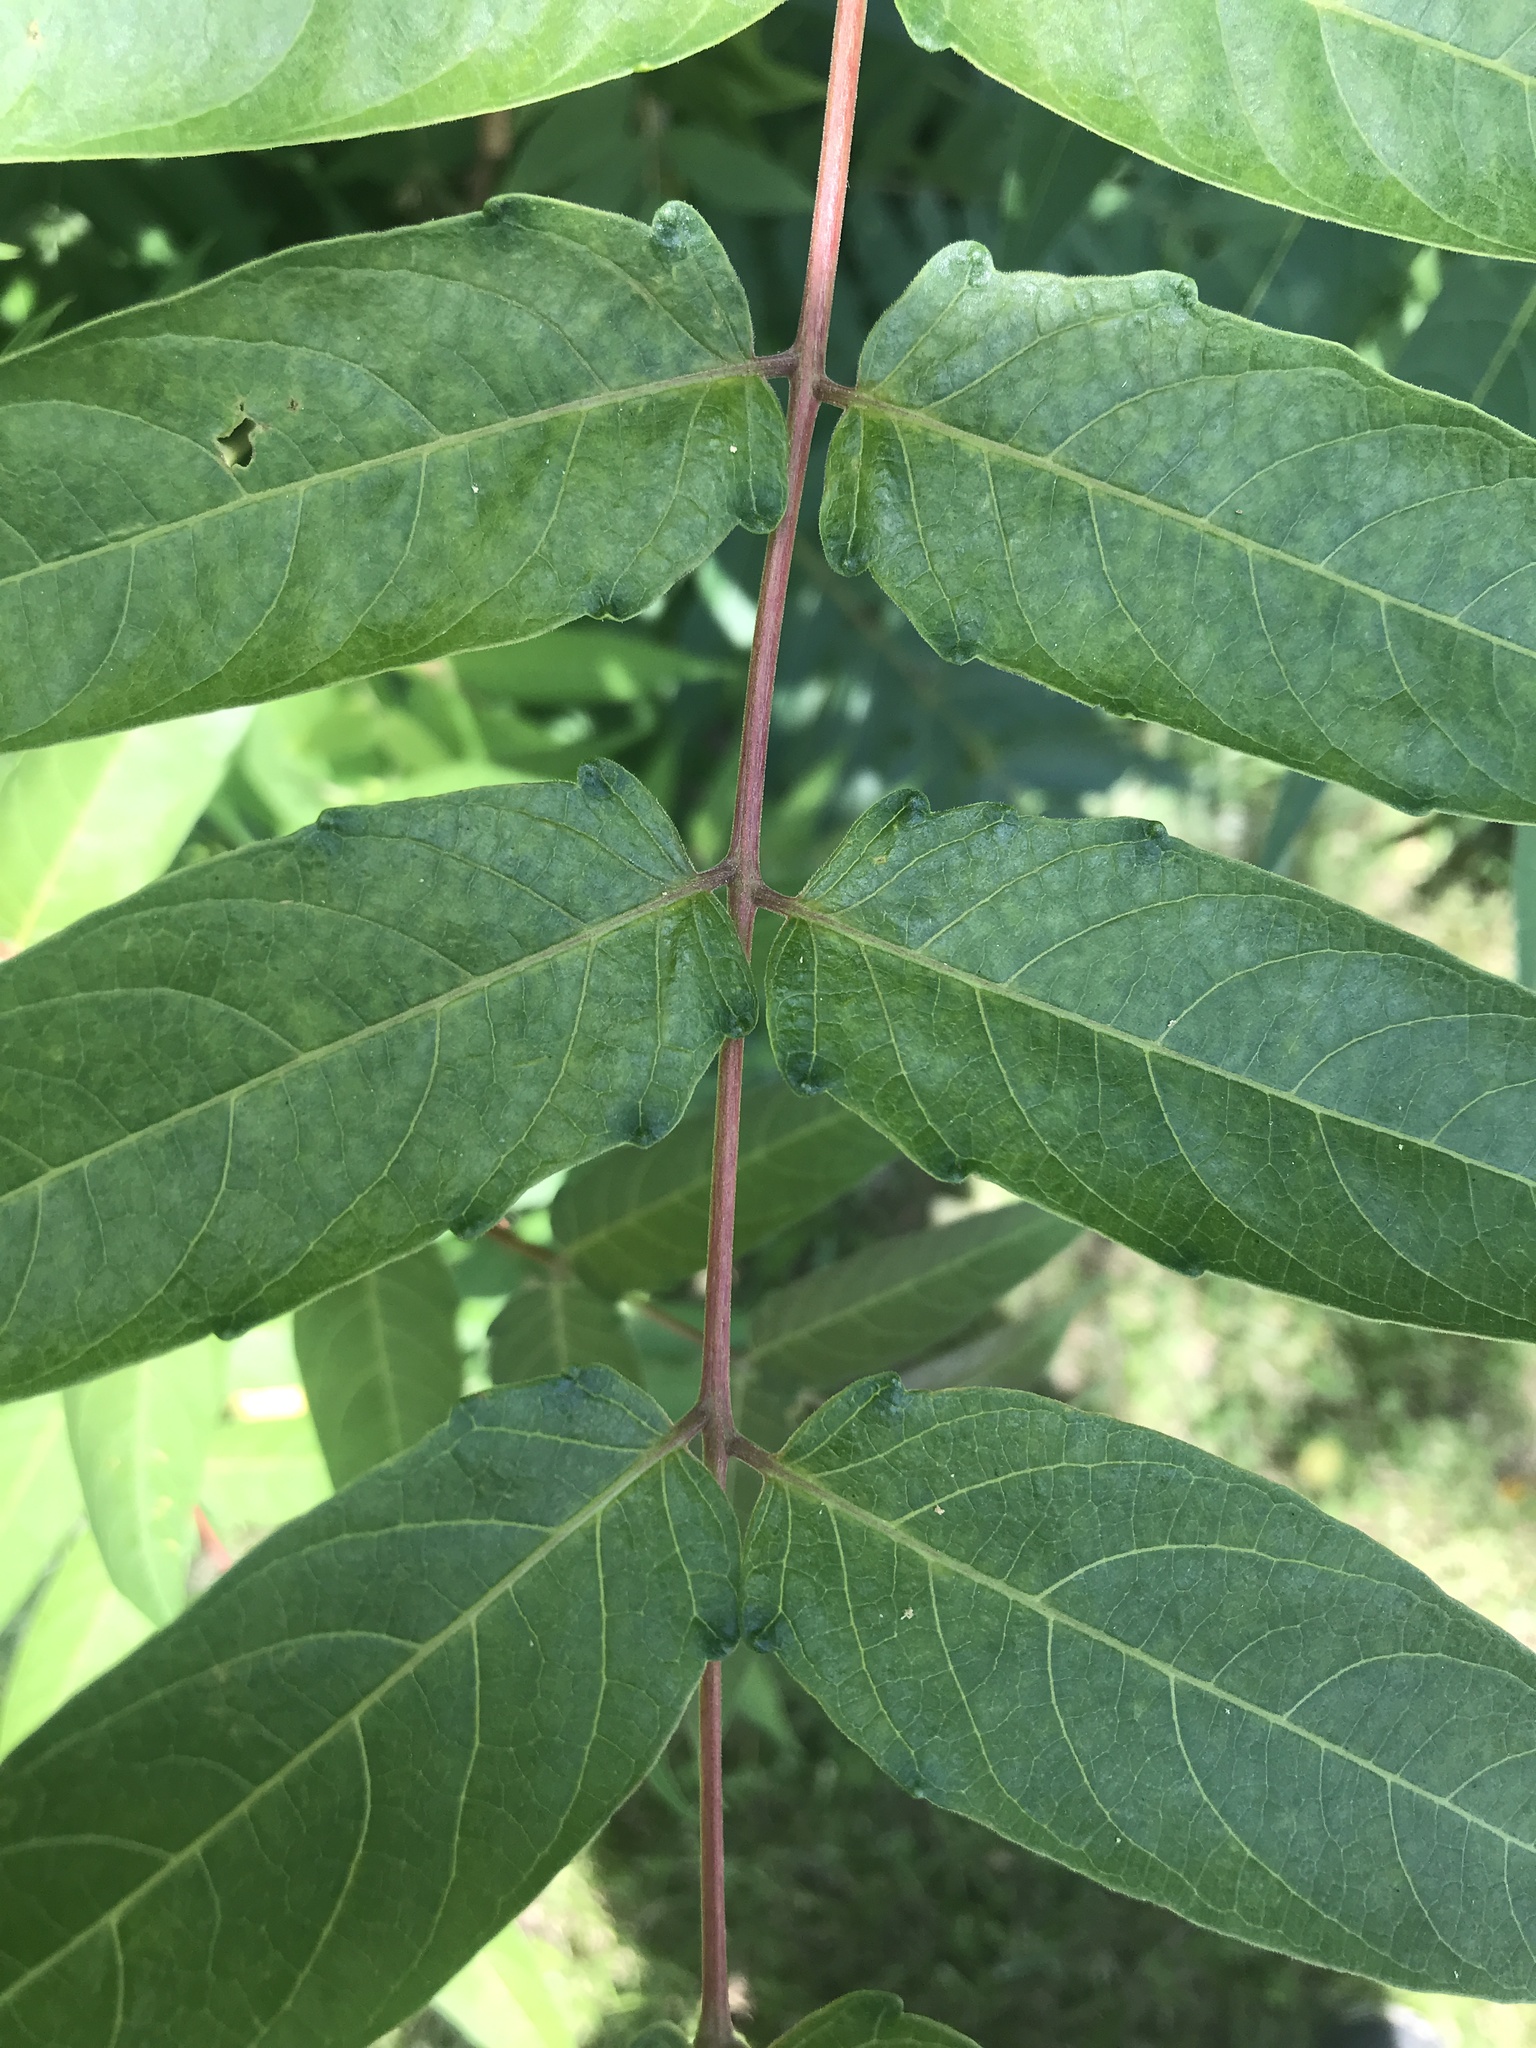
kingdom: Plantae
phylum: Tracheophyta
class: Magnoliopsida
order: Sapindales
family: Simaroubaceae
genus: Ailanthus
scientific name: Ailanthus altissima
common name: Tree-of-heaven
